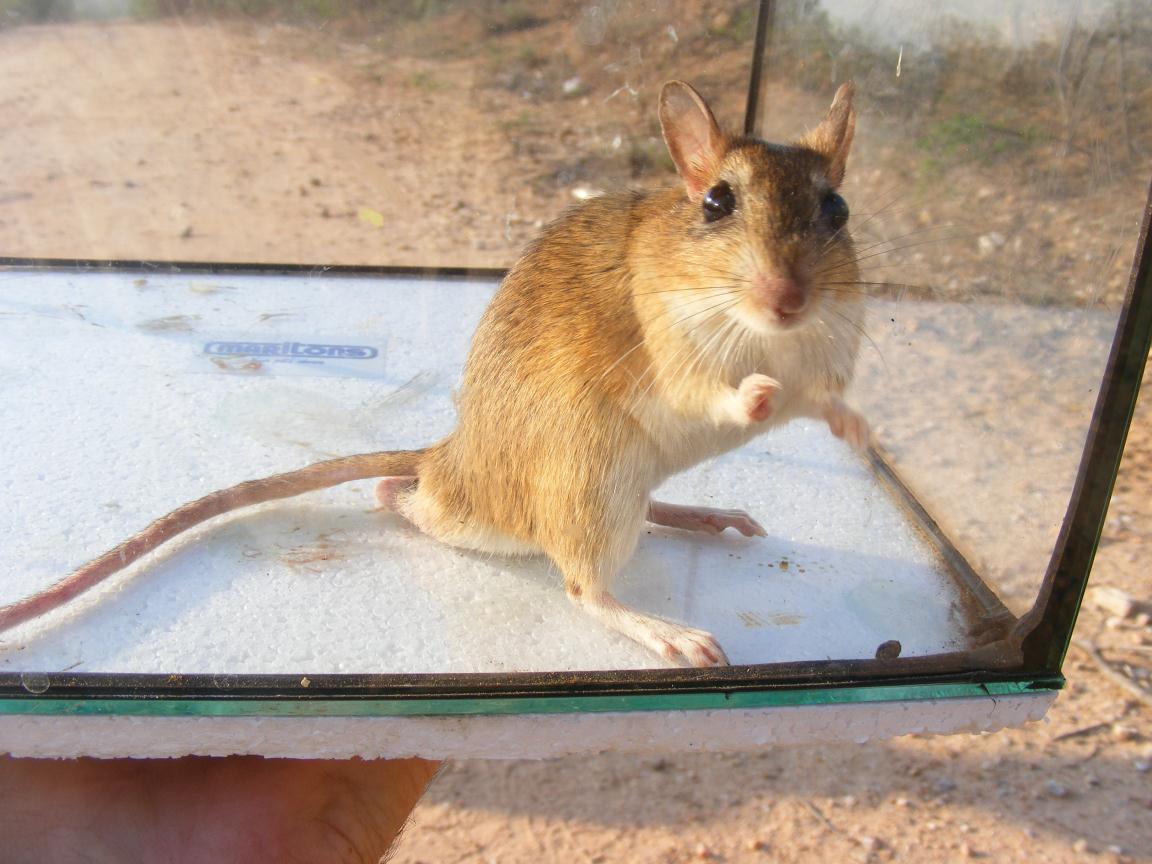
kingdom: Animalia
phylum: Chordata
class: Mammalia
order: Rodentia
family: Muridae
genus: Gerbilliscus
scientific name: Gerbilliscus leucogaster
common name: Bushveld gerbil
